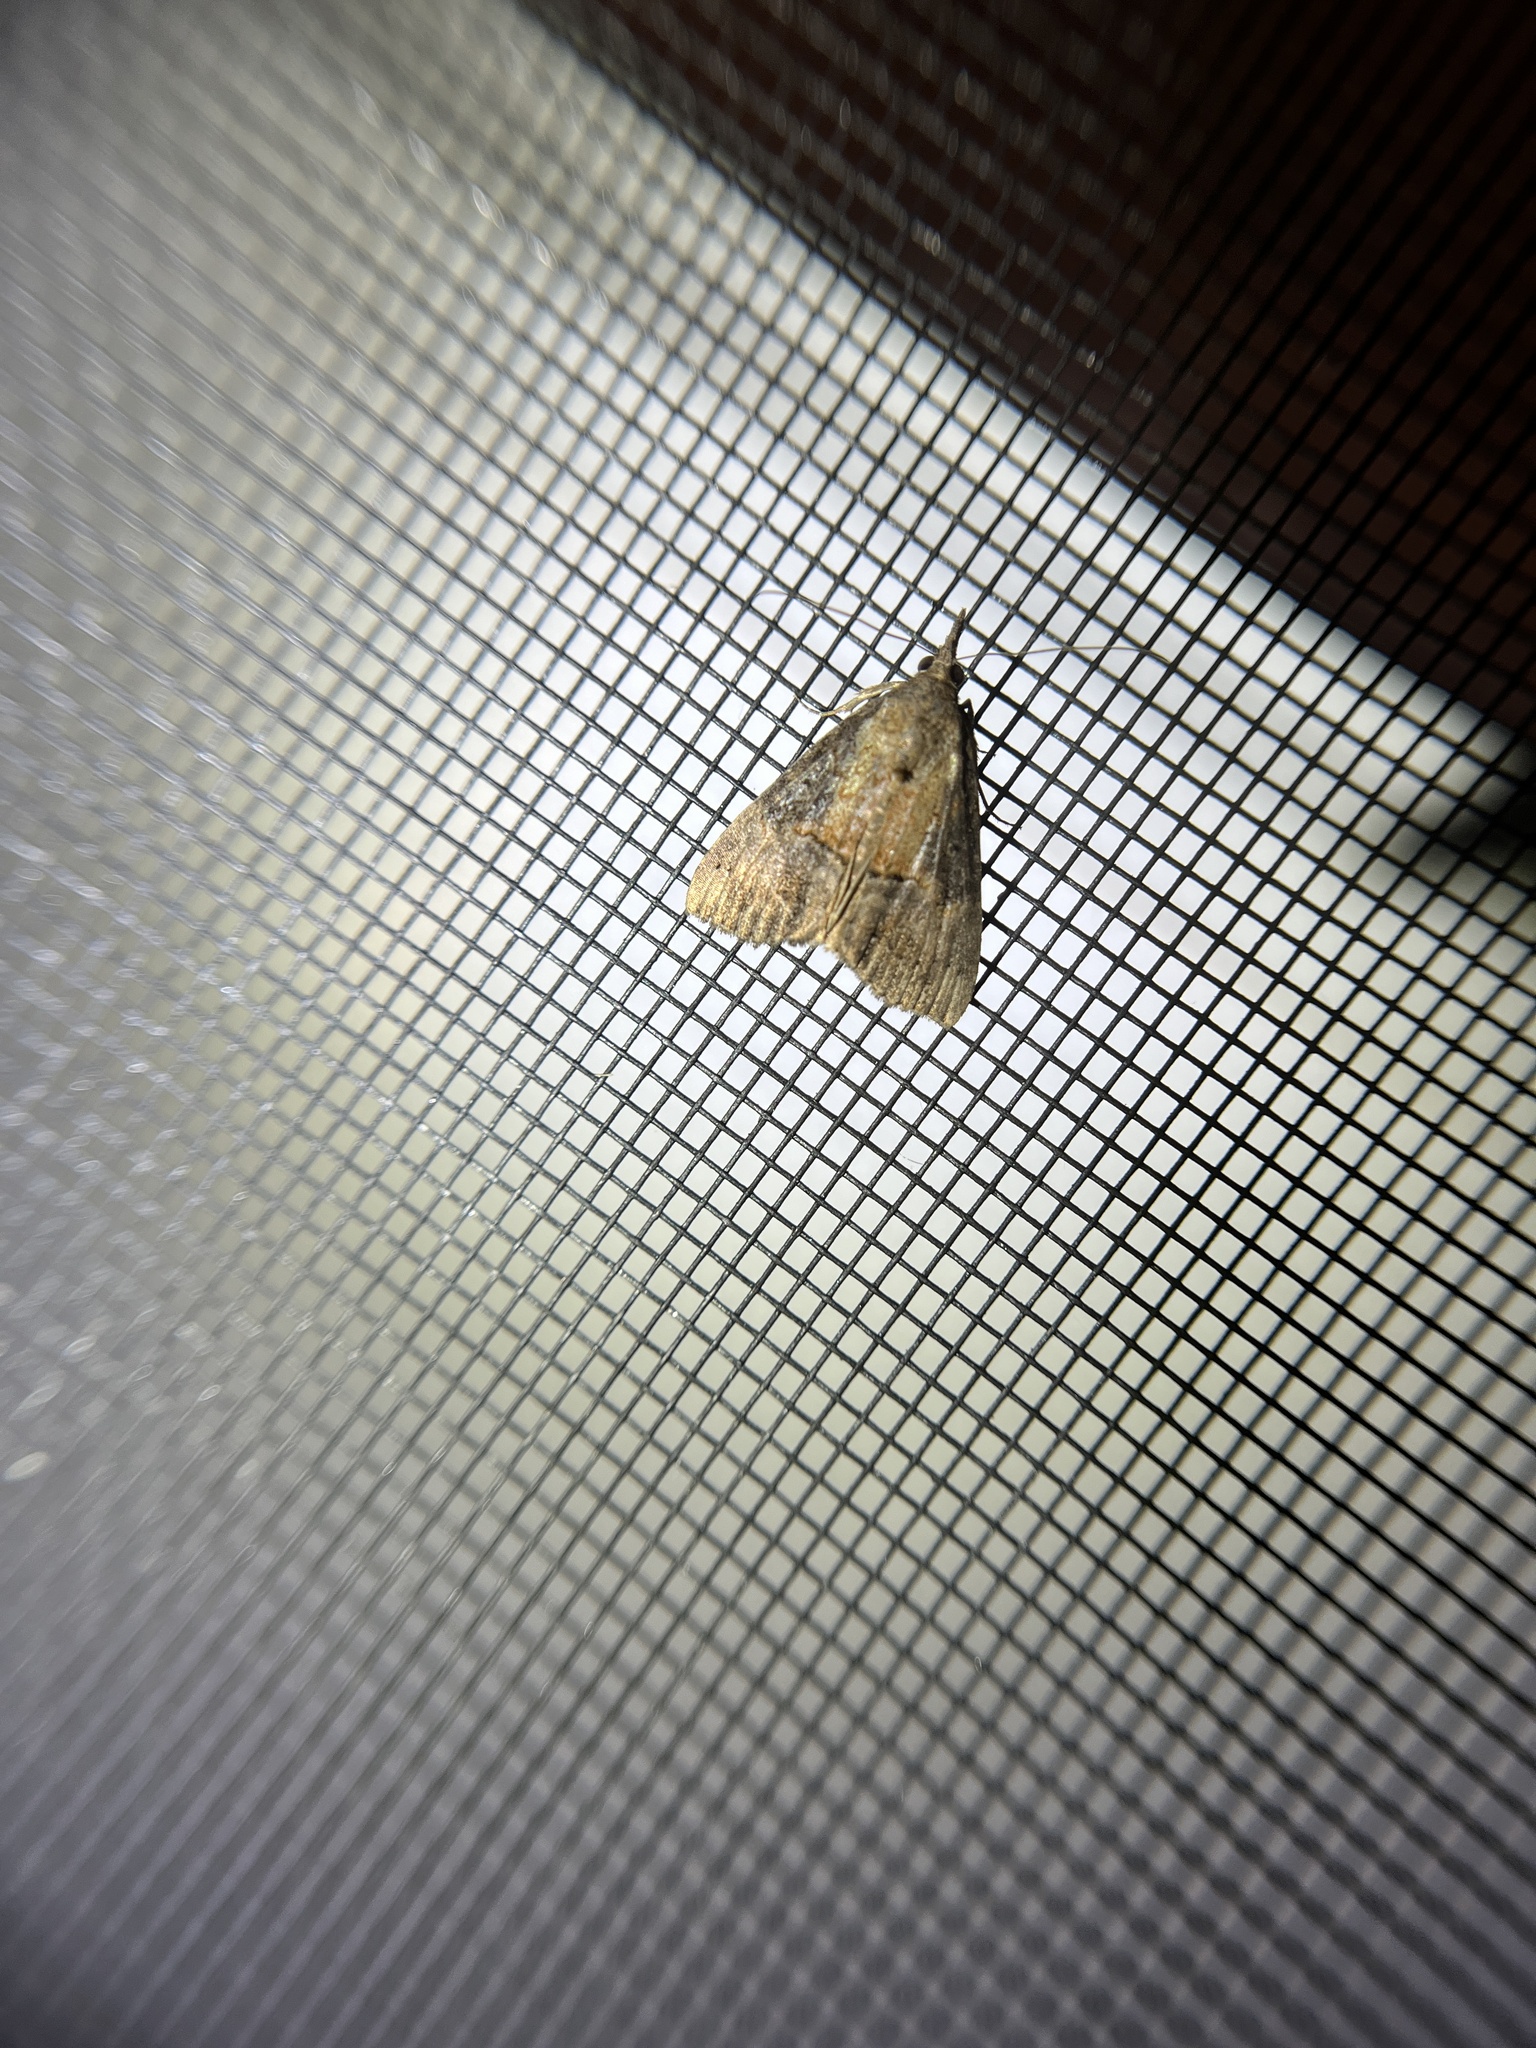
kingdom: Animalia
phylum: Arthropoda
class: Insecta
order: Lepidoptera
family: Erebidae
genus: Hypena
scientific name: Hypena scabra
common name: Green cloverworm
